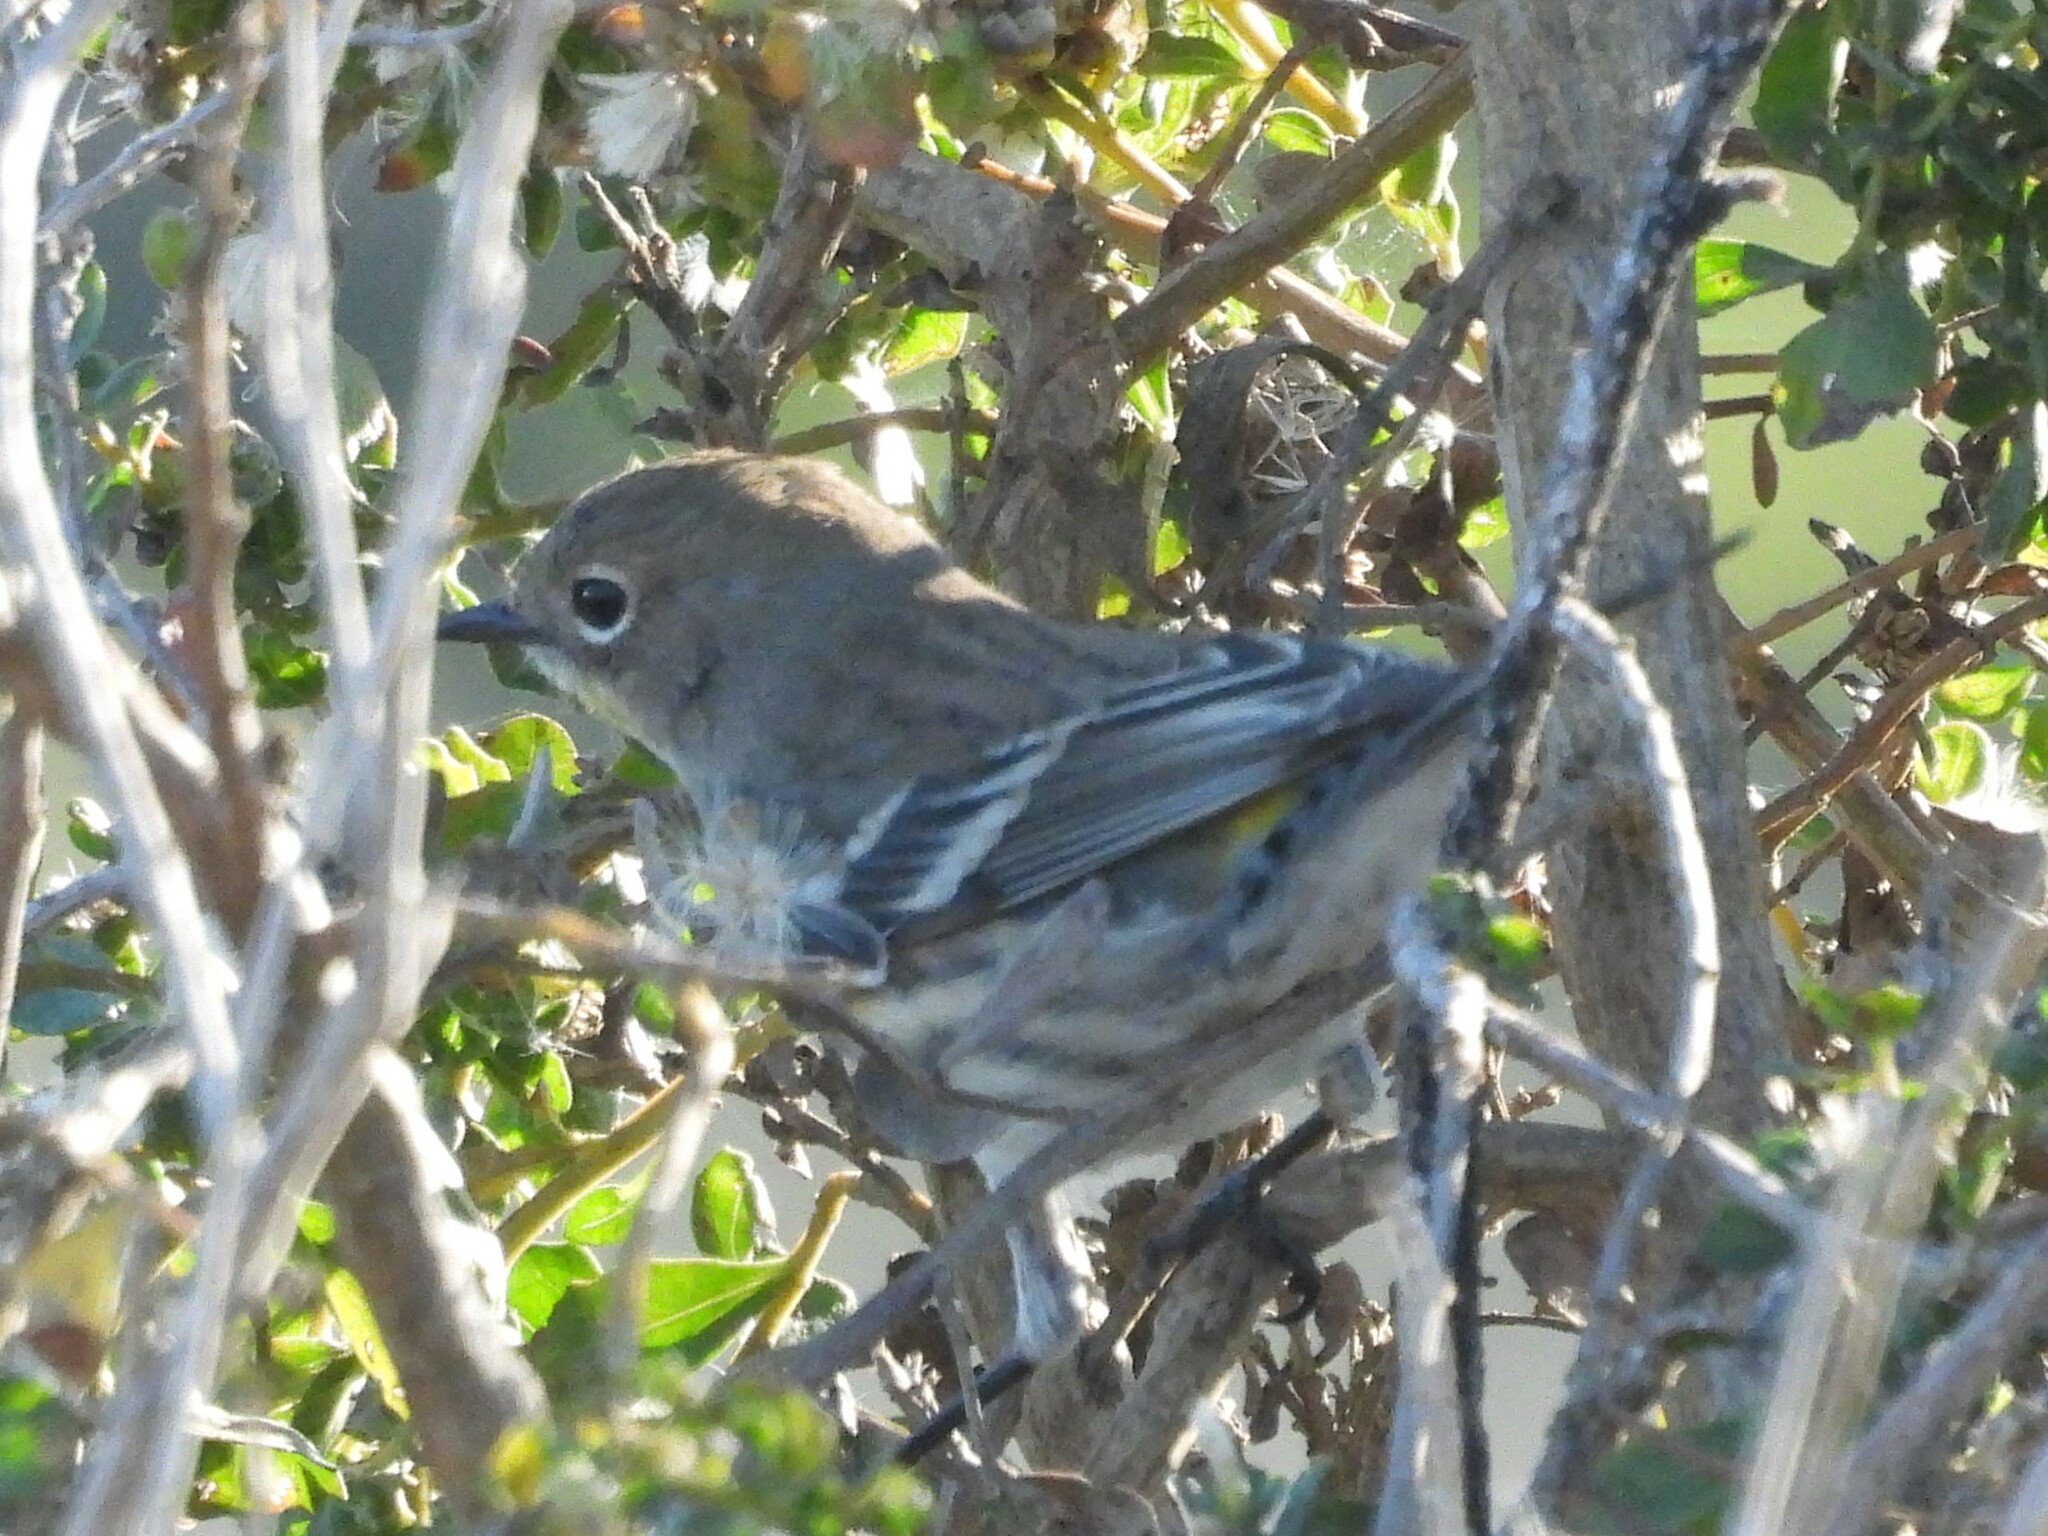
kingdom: Animalia
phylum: Chordata
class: Aves
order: Passeriformes
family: Parulidae
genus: Setophaga
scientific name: Setophaga coronata
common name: Myrtle warbler
